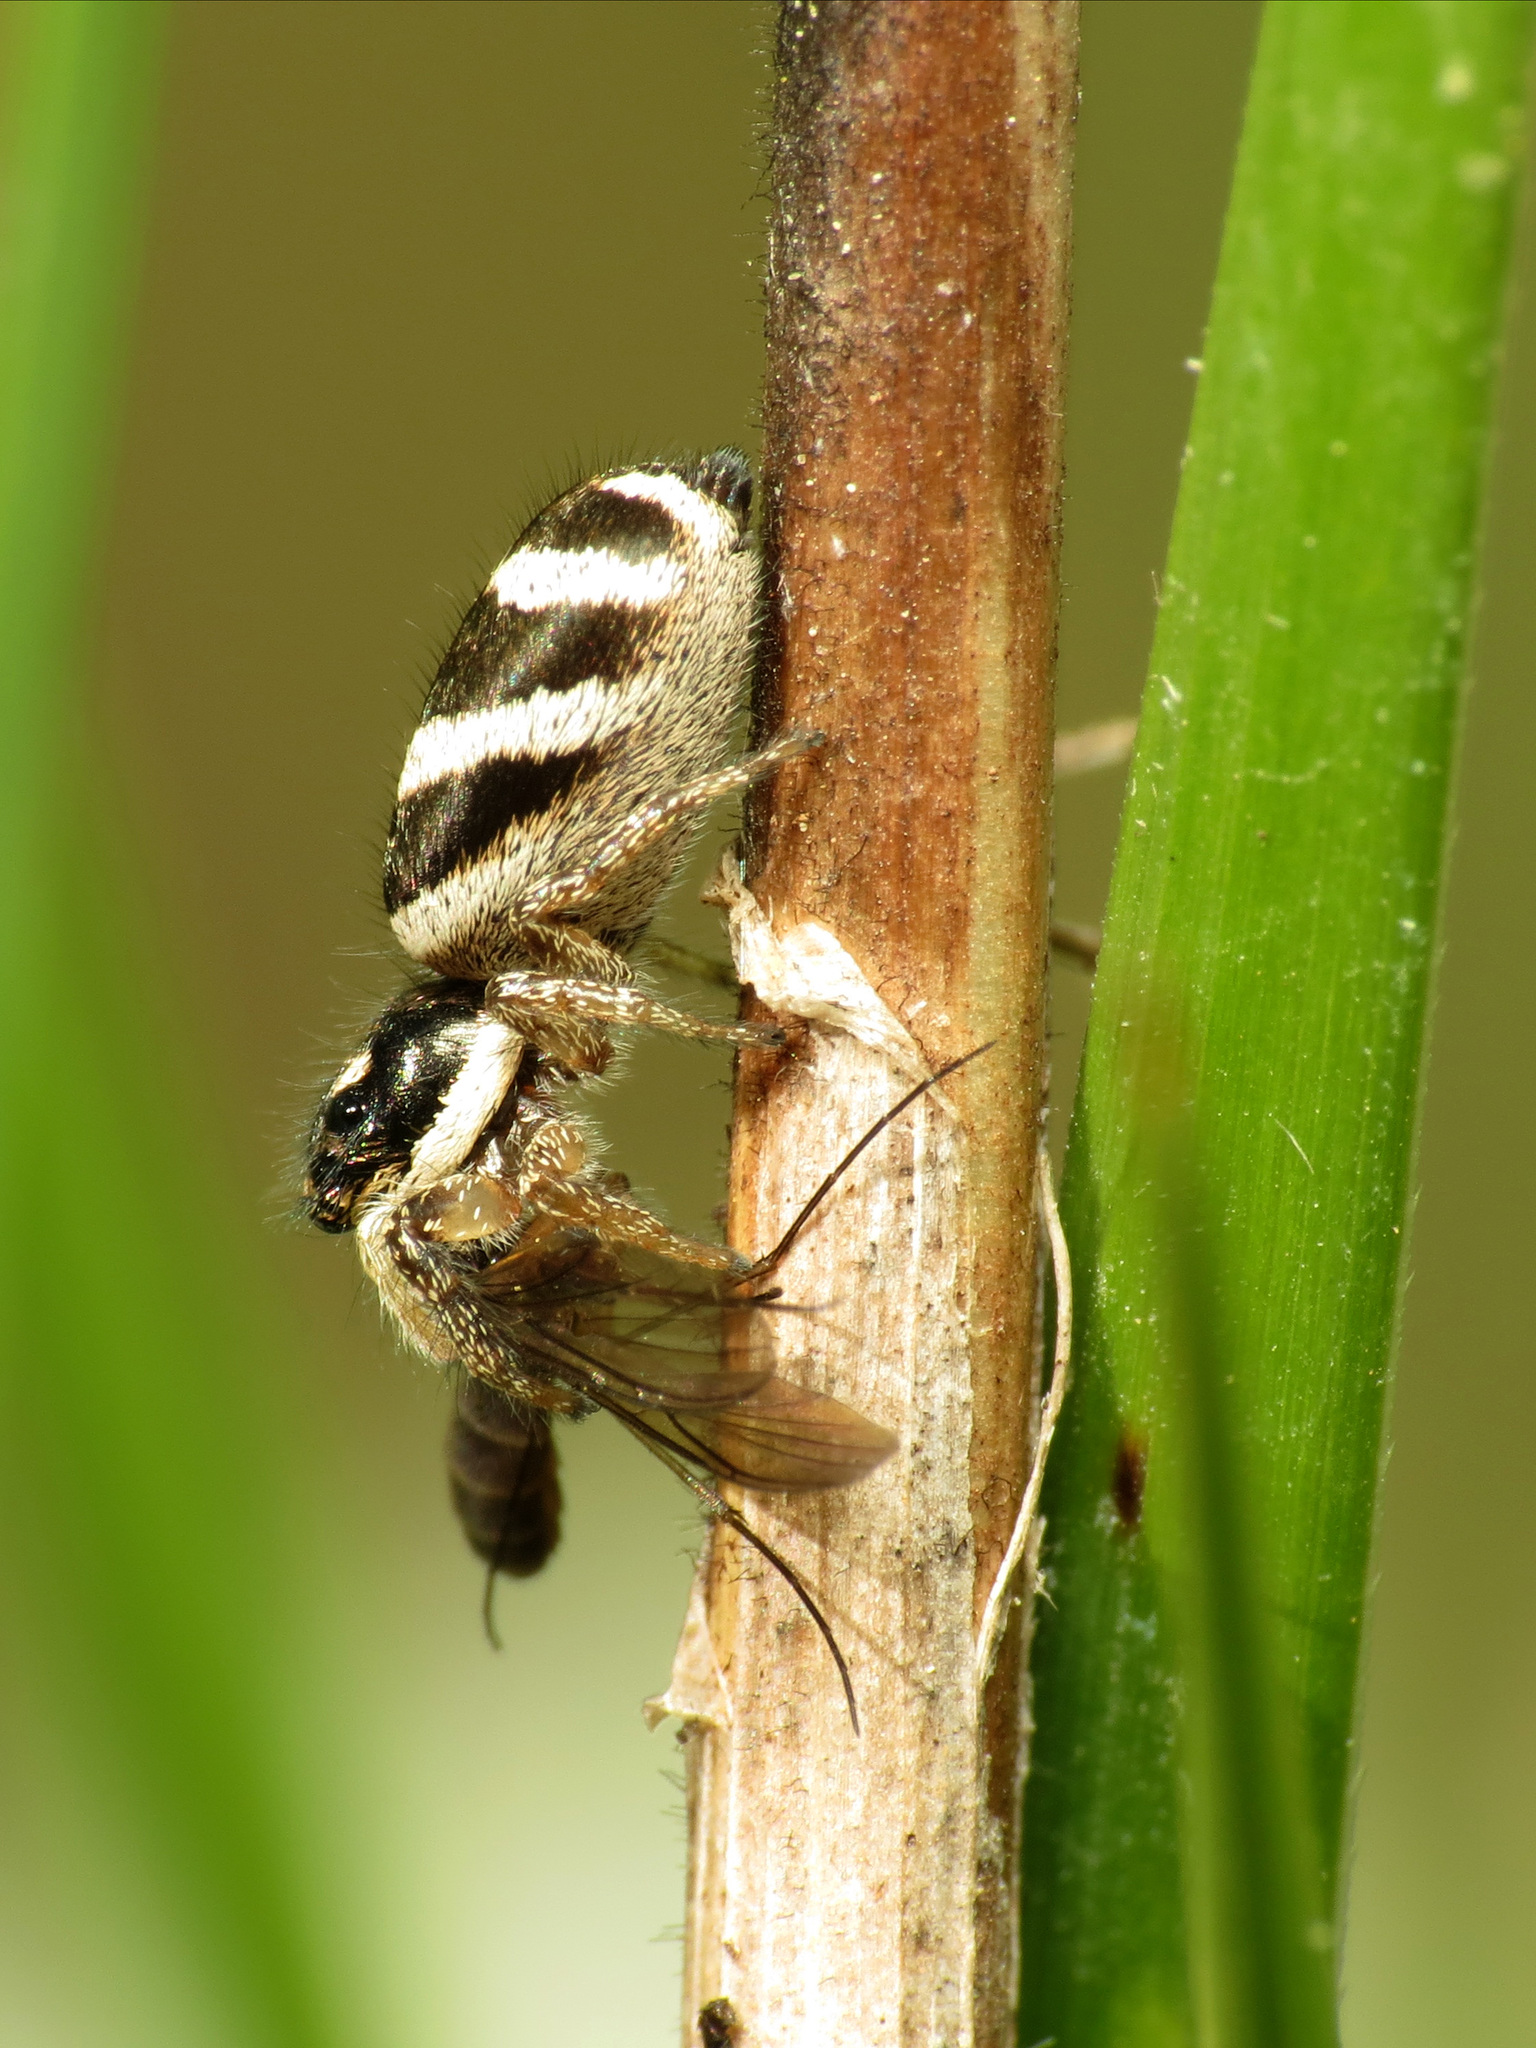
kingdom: Animalia
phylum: Arthropoda
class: Arachnida
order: Araneae
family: Salticidae
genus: Salticus
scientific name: Salticus scenicus
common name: Zebra jumper
